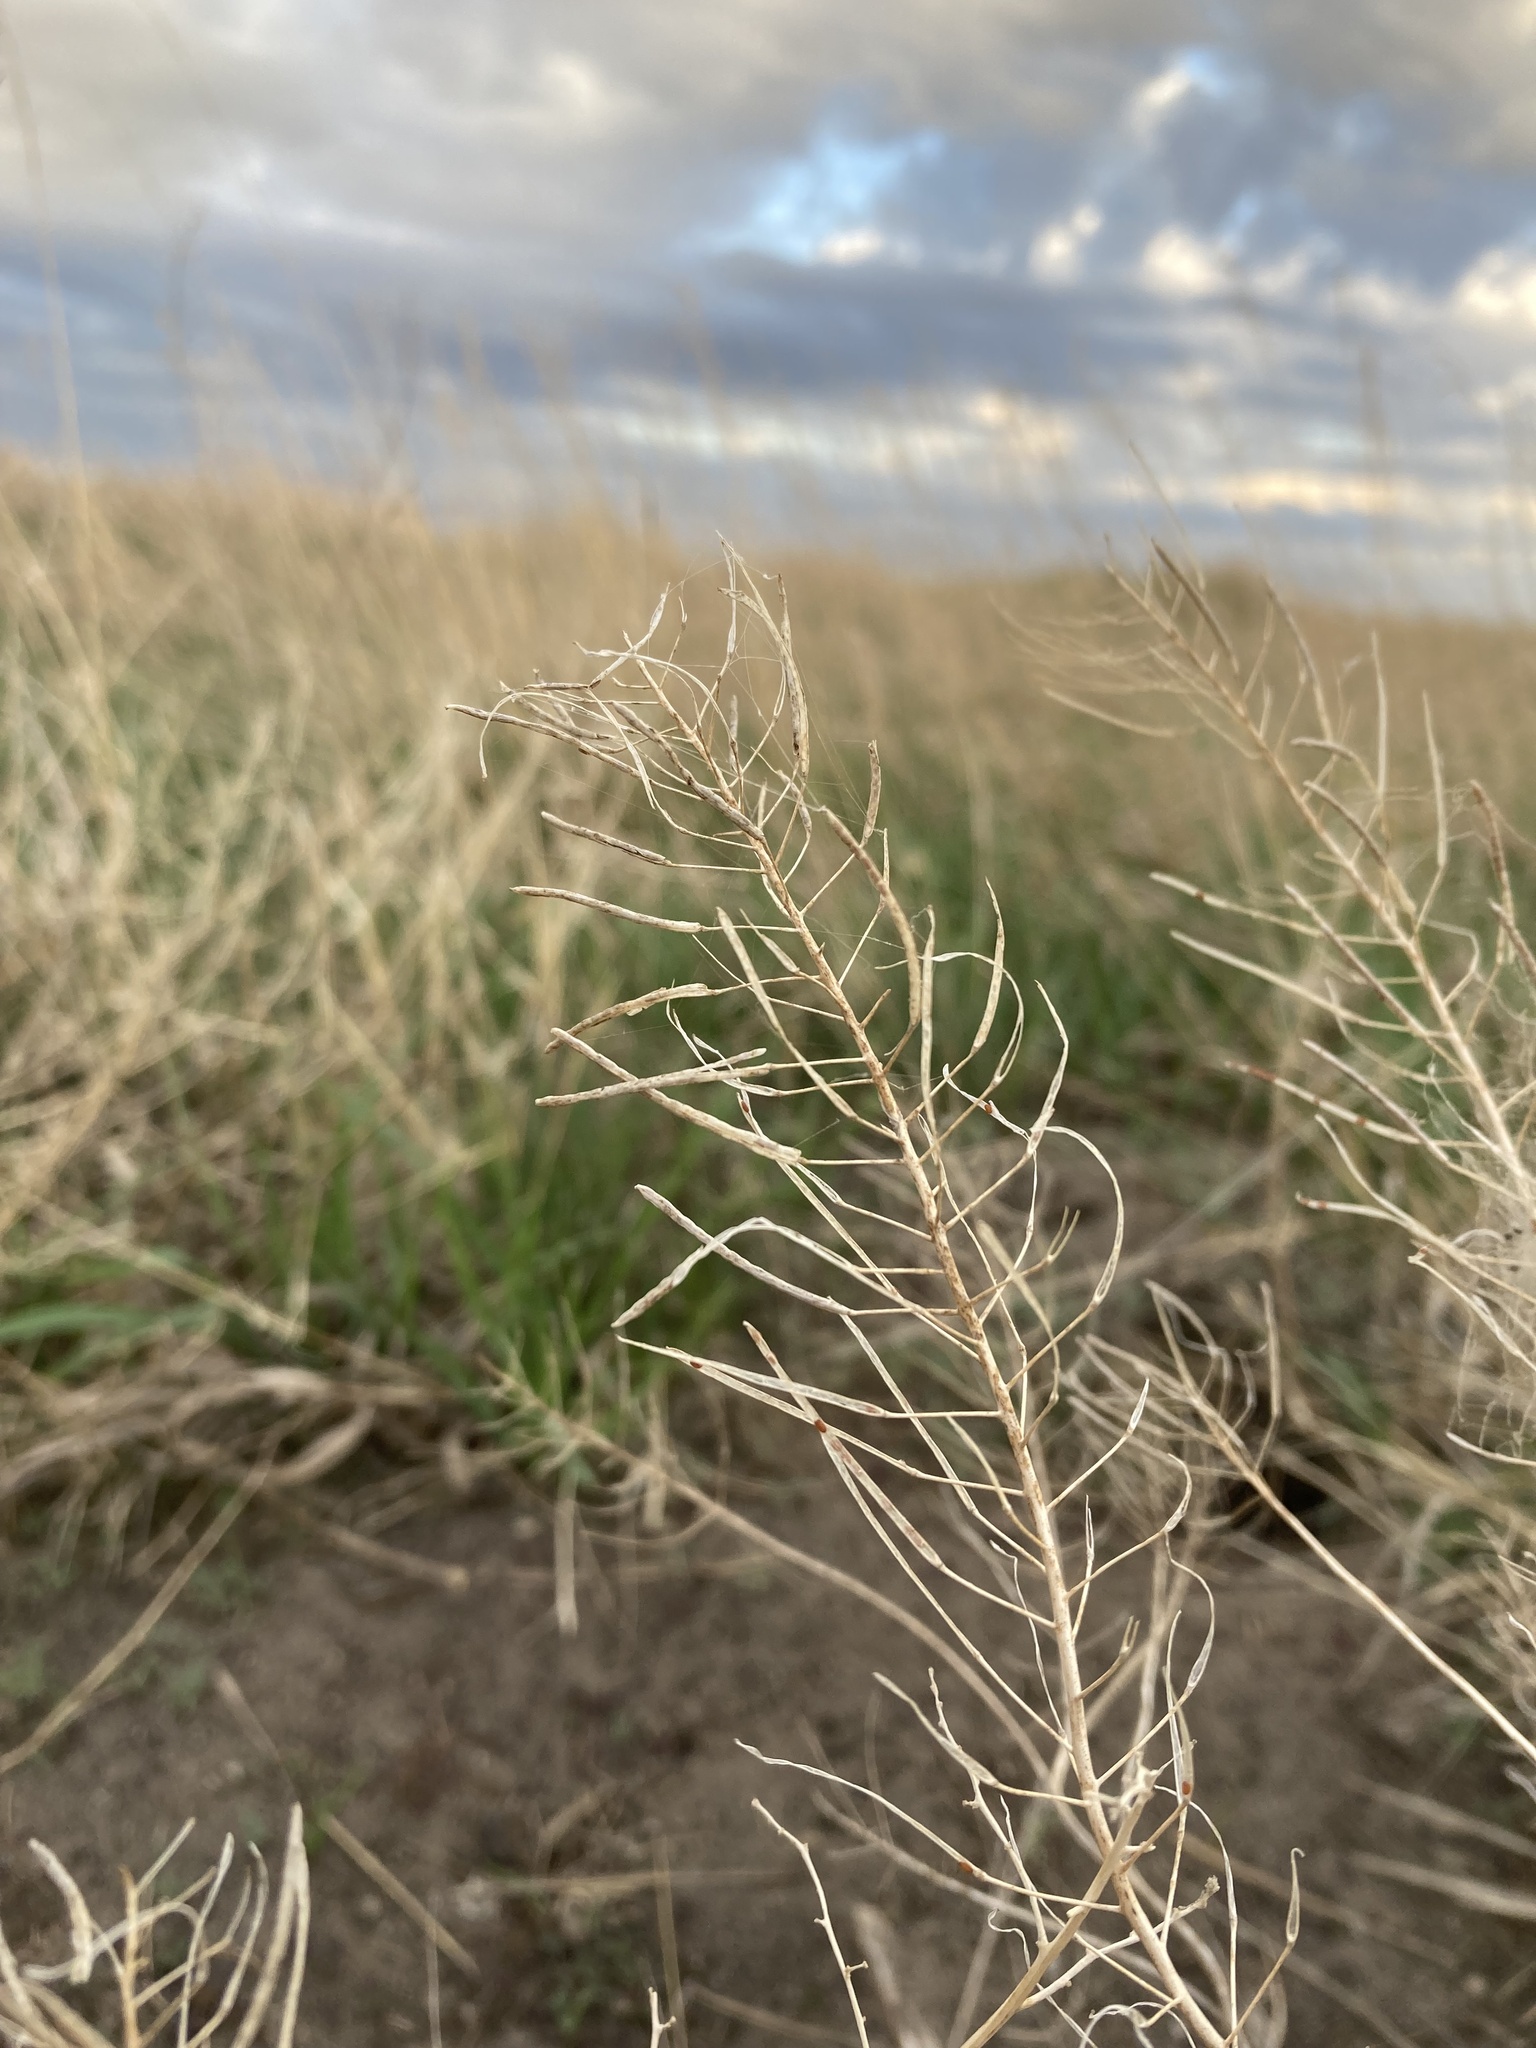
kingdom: Plantae
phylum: Tracheophyta
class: Magnoliopsida
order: Brassicales
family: Brassicaceae
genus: Sisymbrium
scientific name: Sisymbrium loeselii
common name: False london-rocket
